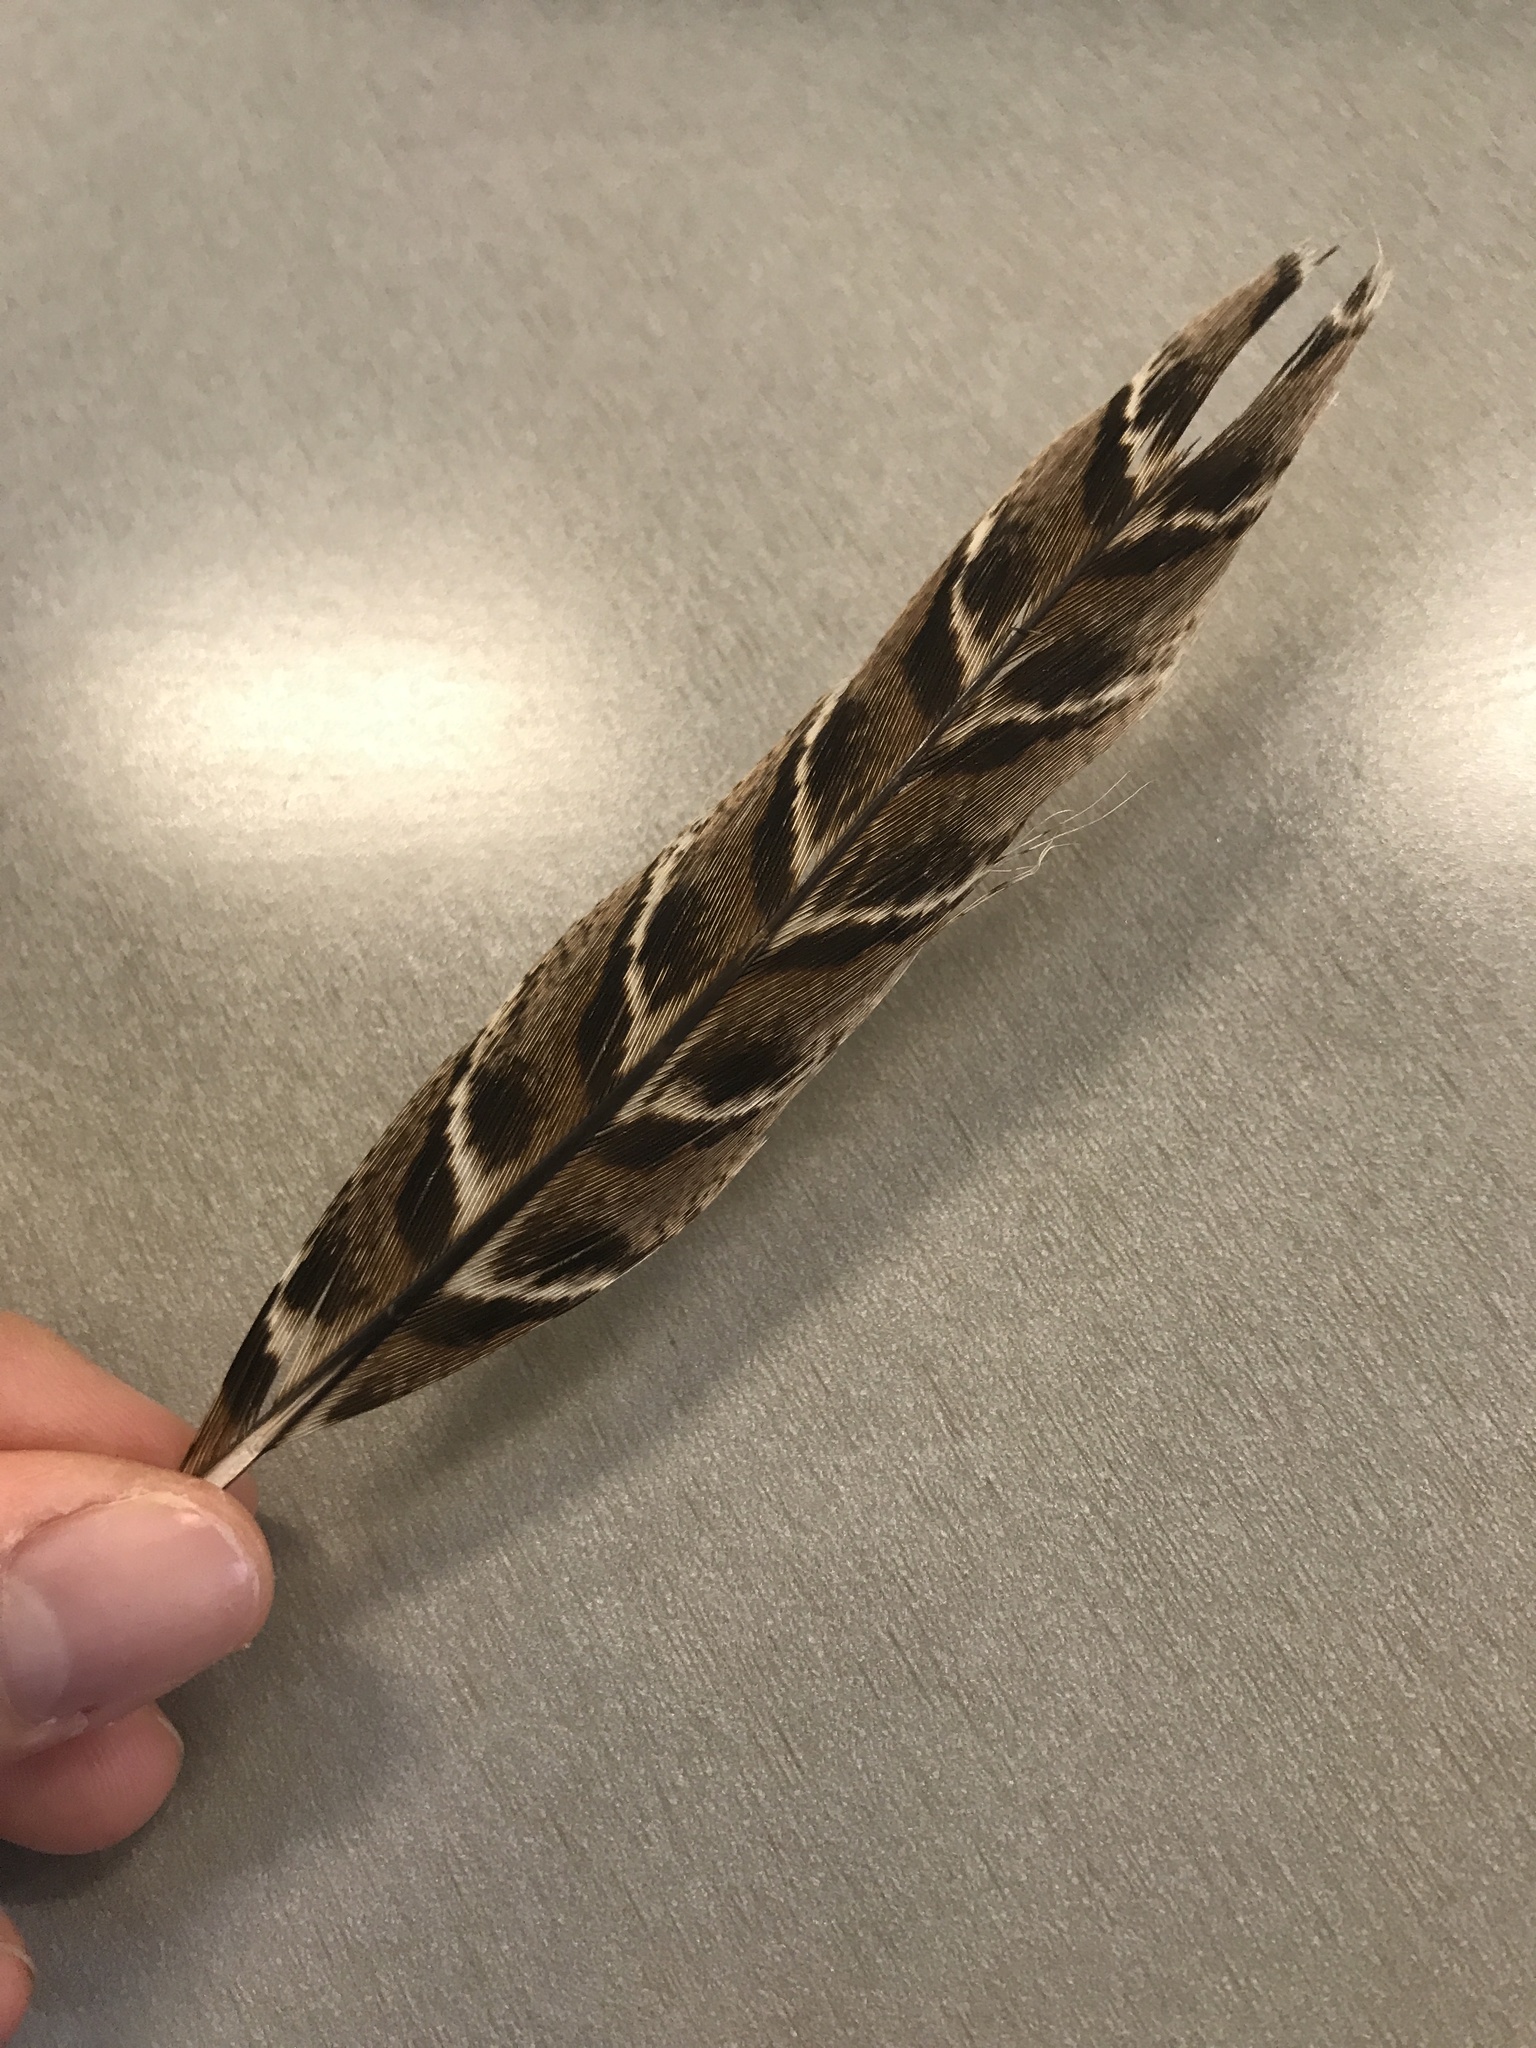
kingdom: Animalia
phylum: Chordata
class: Aves
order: Galliformes
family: Phasianidae
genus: Phasianus
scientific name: Phasianus colchicus
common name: Common pheasant
